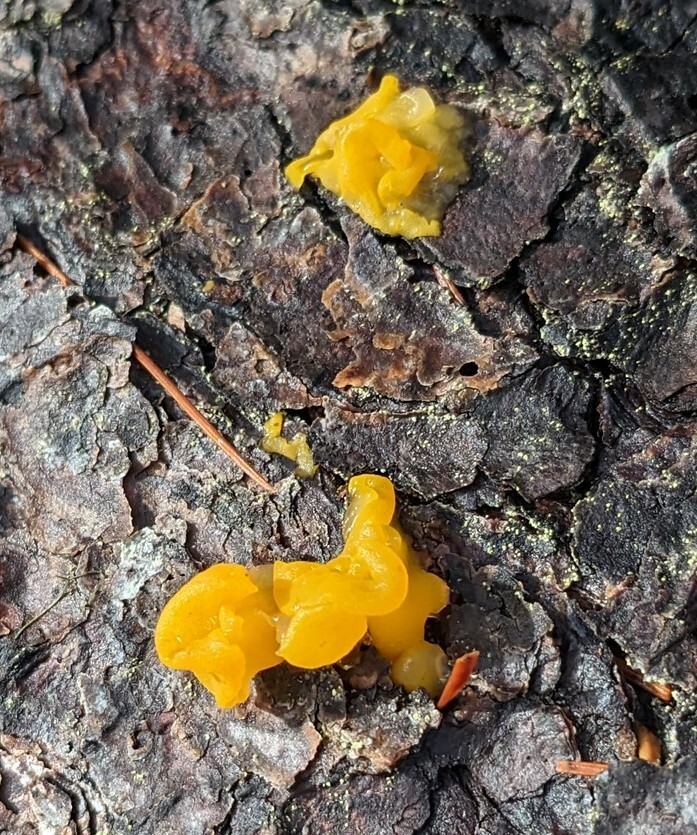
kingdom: Fungi
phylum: Basidiomycota
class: Dacrymycetes
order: Dacrymycetales
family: Dacrymycetaceae
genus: Dacrymyces
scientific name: Dacrymyces chrysospermus
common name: Orange jelly spot
